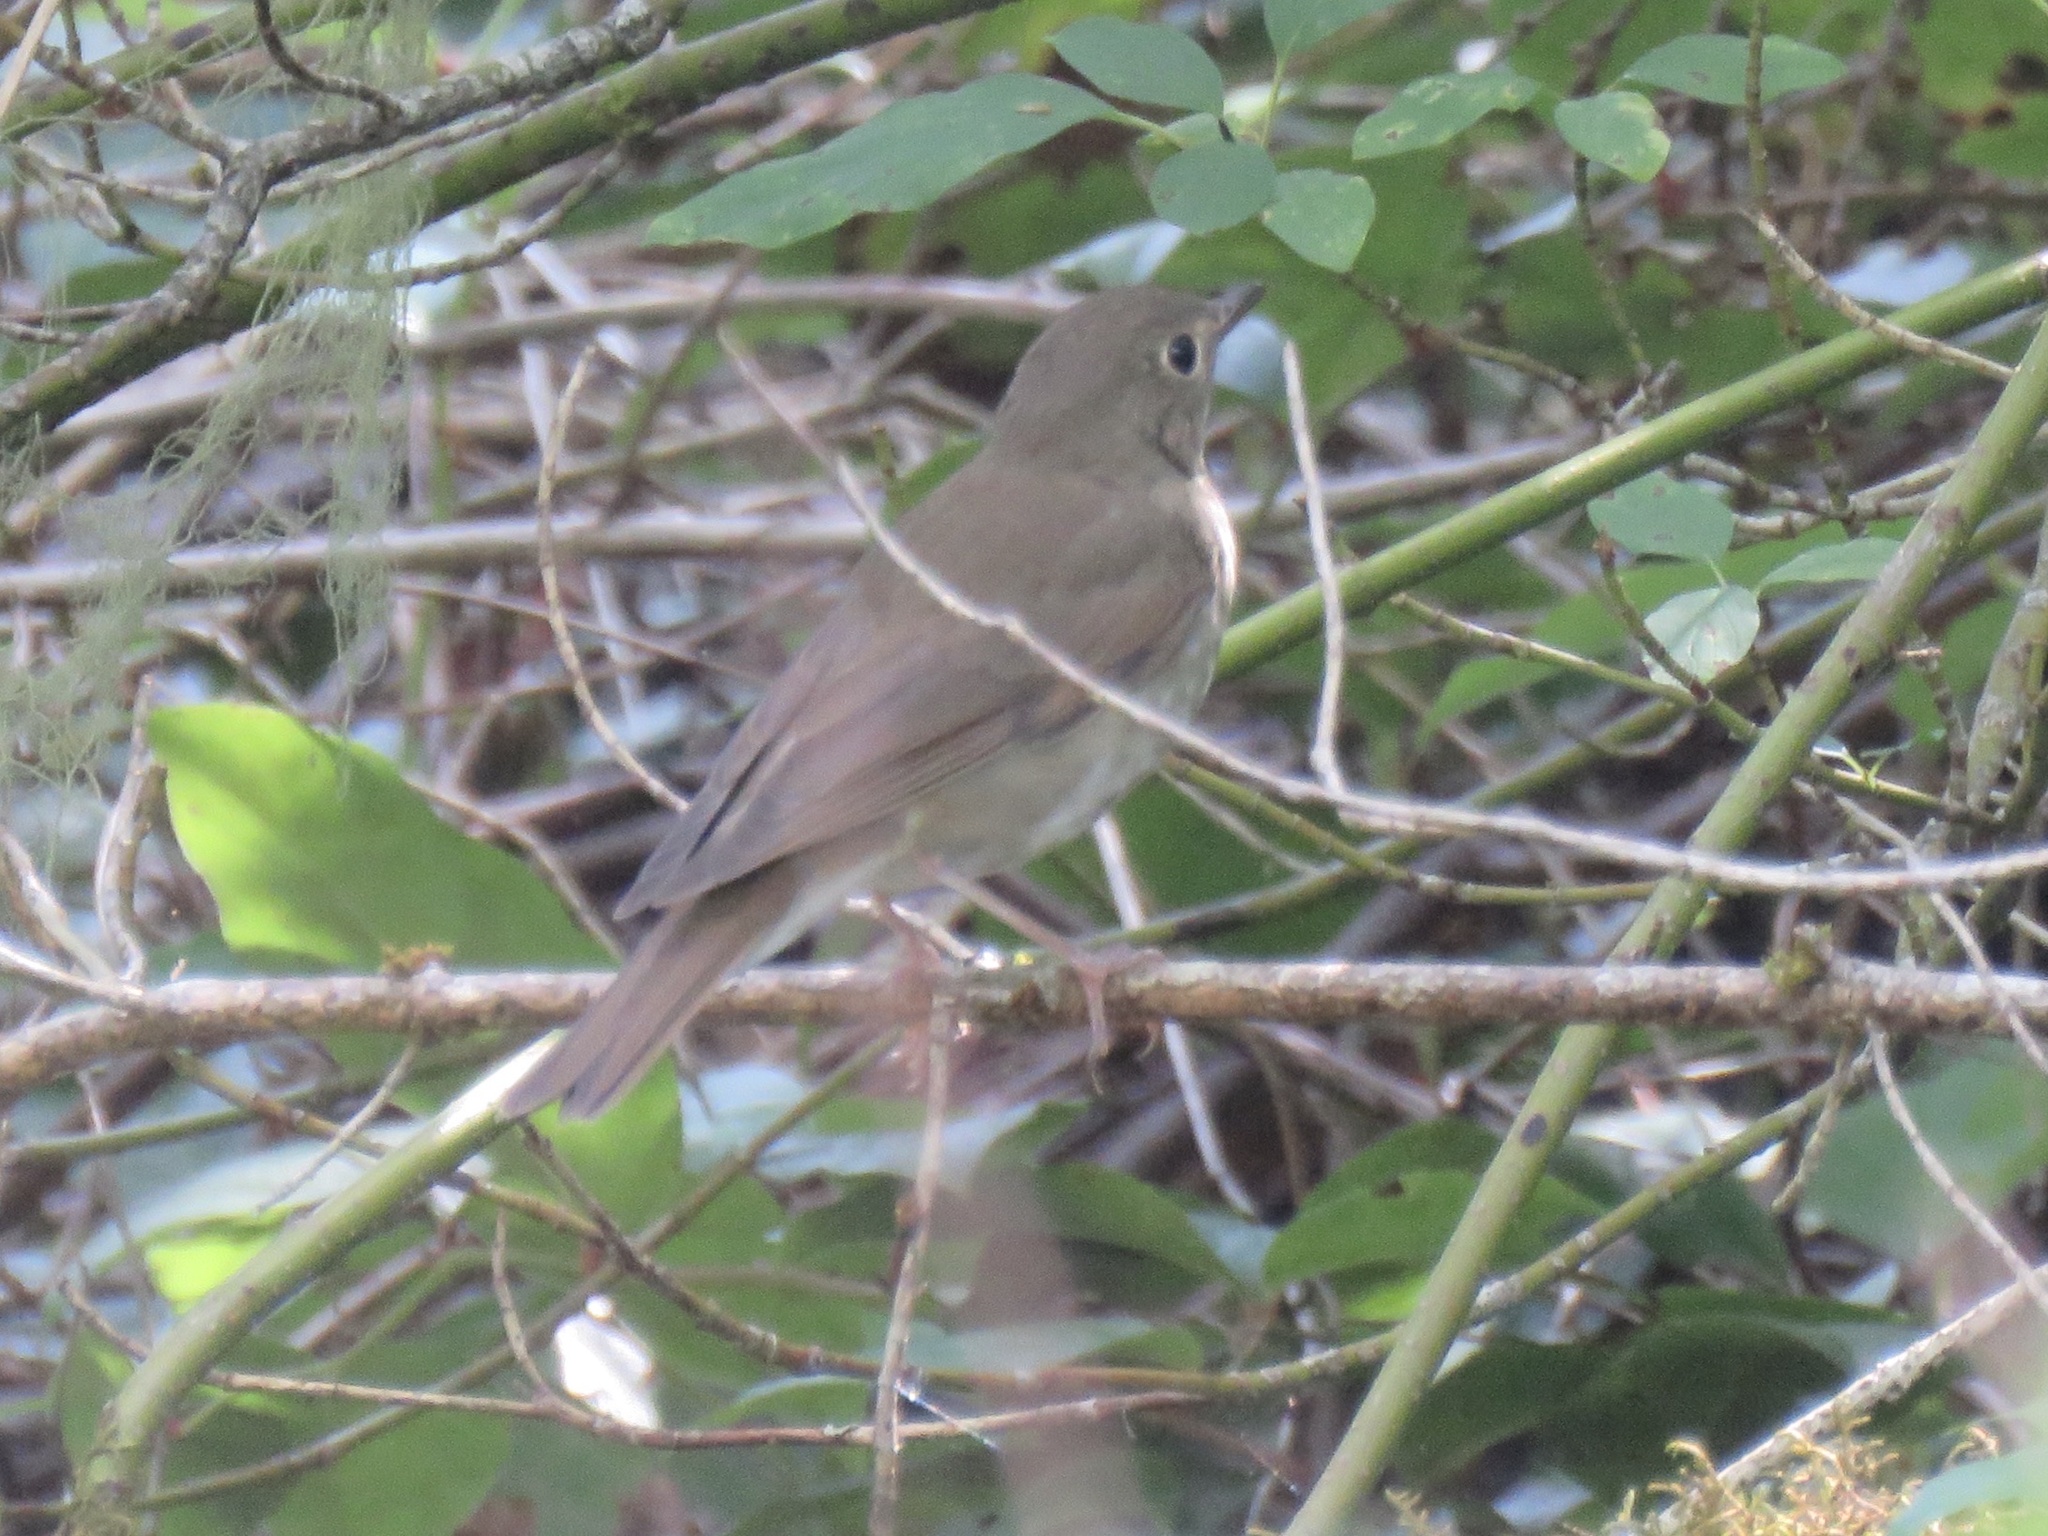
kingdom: Animalia
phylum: Chordata
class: Aves
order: Passeriformes
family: Turdidae
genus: Catharus
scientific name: Catharus ustulatus
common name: Swainson's thrush
